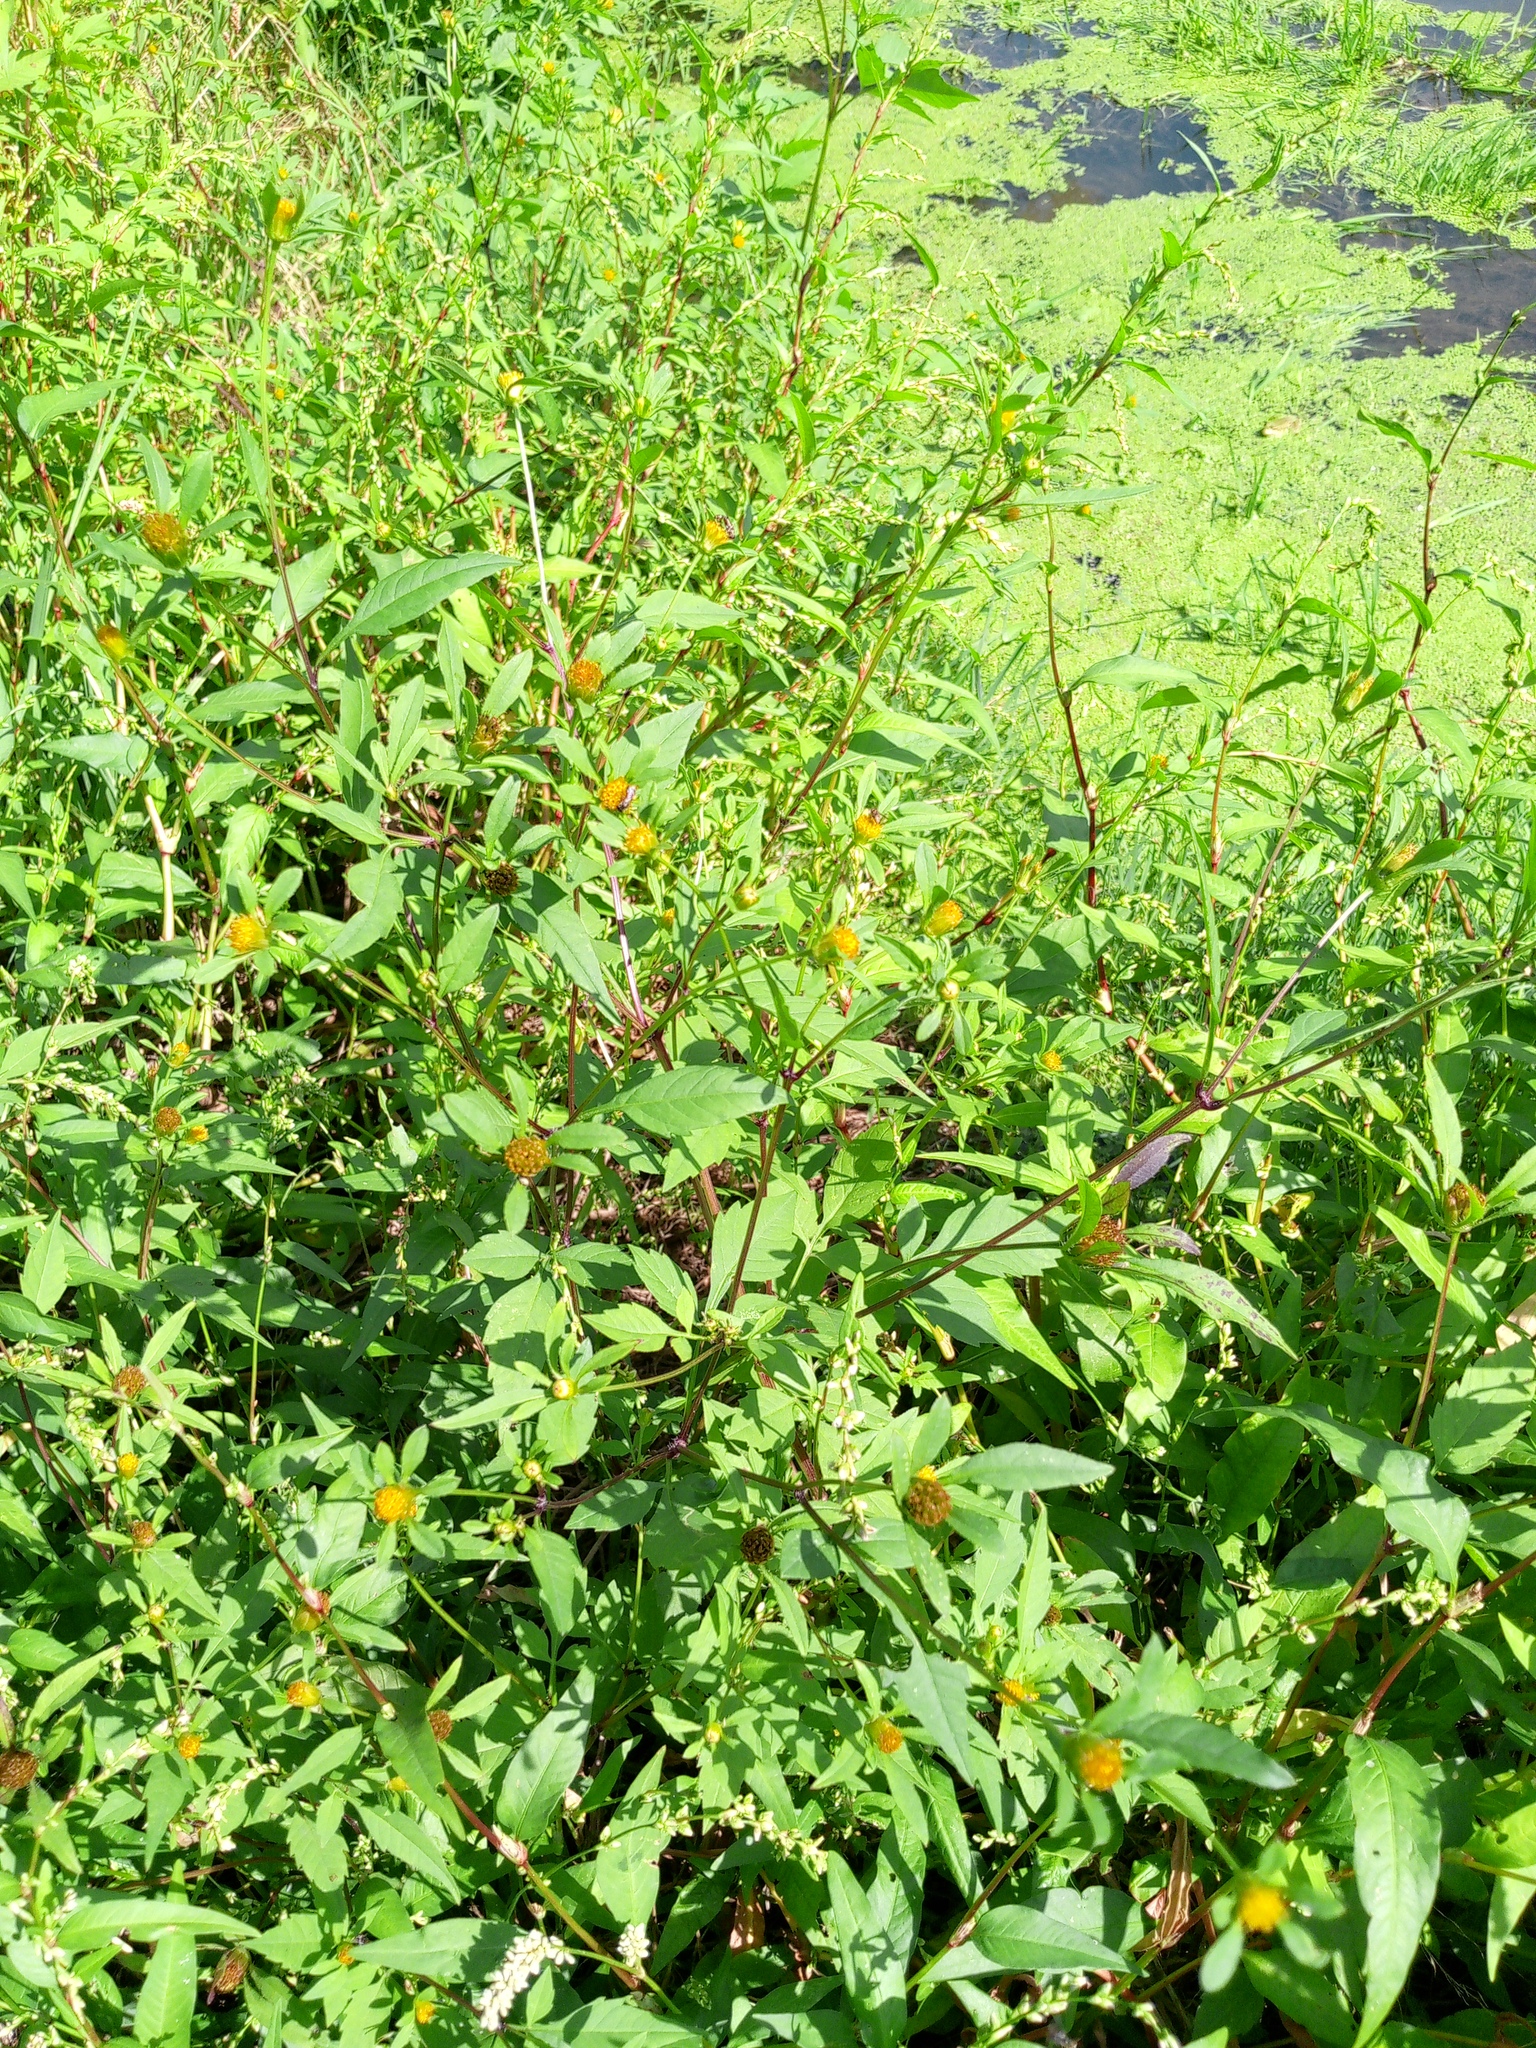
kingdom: Plantae
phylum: Tracheophyta
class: Magnoliopsida
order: Asterales
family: Asteraceae
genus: Bidens
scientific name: Bidens frondosa
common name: Beggarticks
